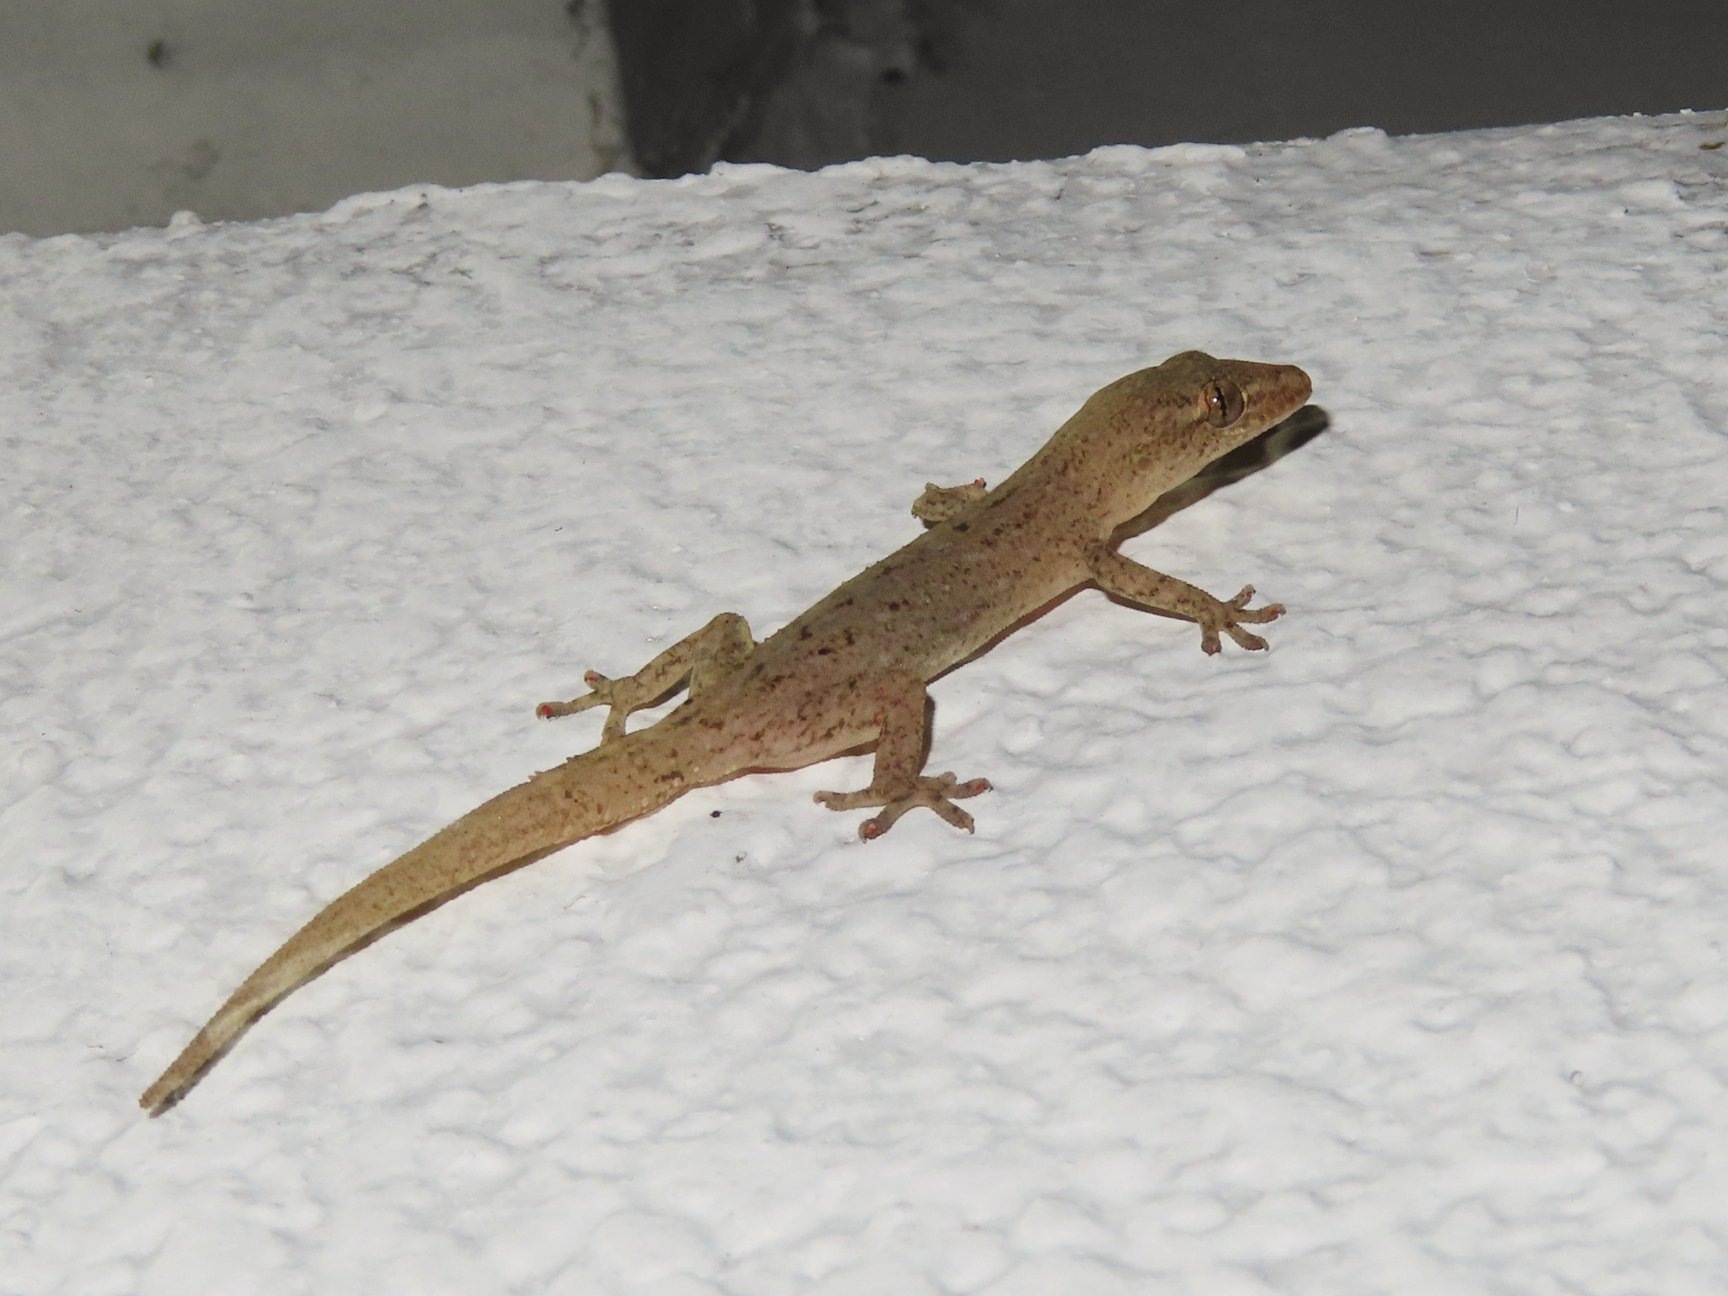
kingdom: Animalia
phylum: Chordata
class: Squamata
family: Gekkonidae
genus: Hemidactylus
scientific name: Hemidactylus frenatus
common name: Common house gecko
